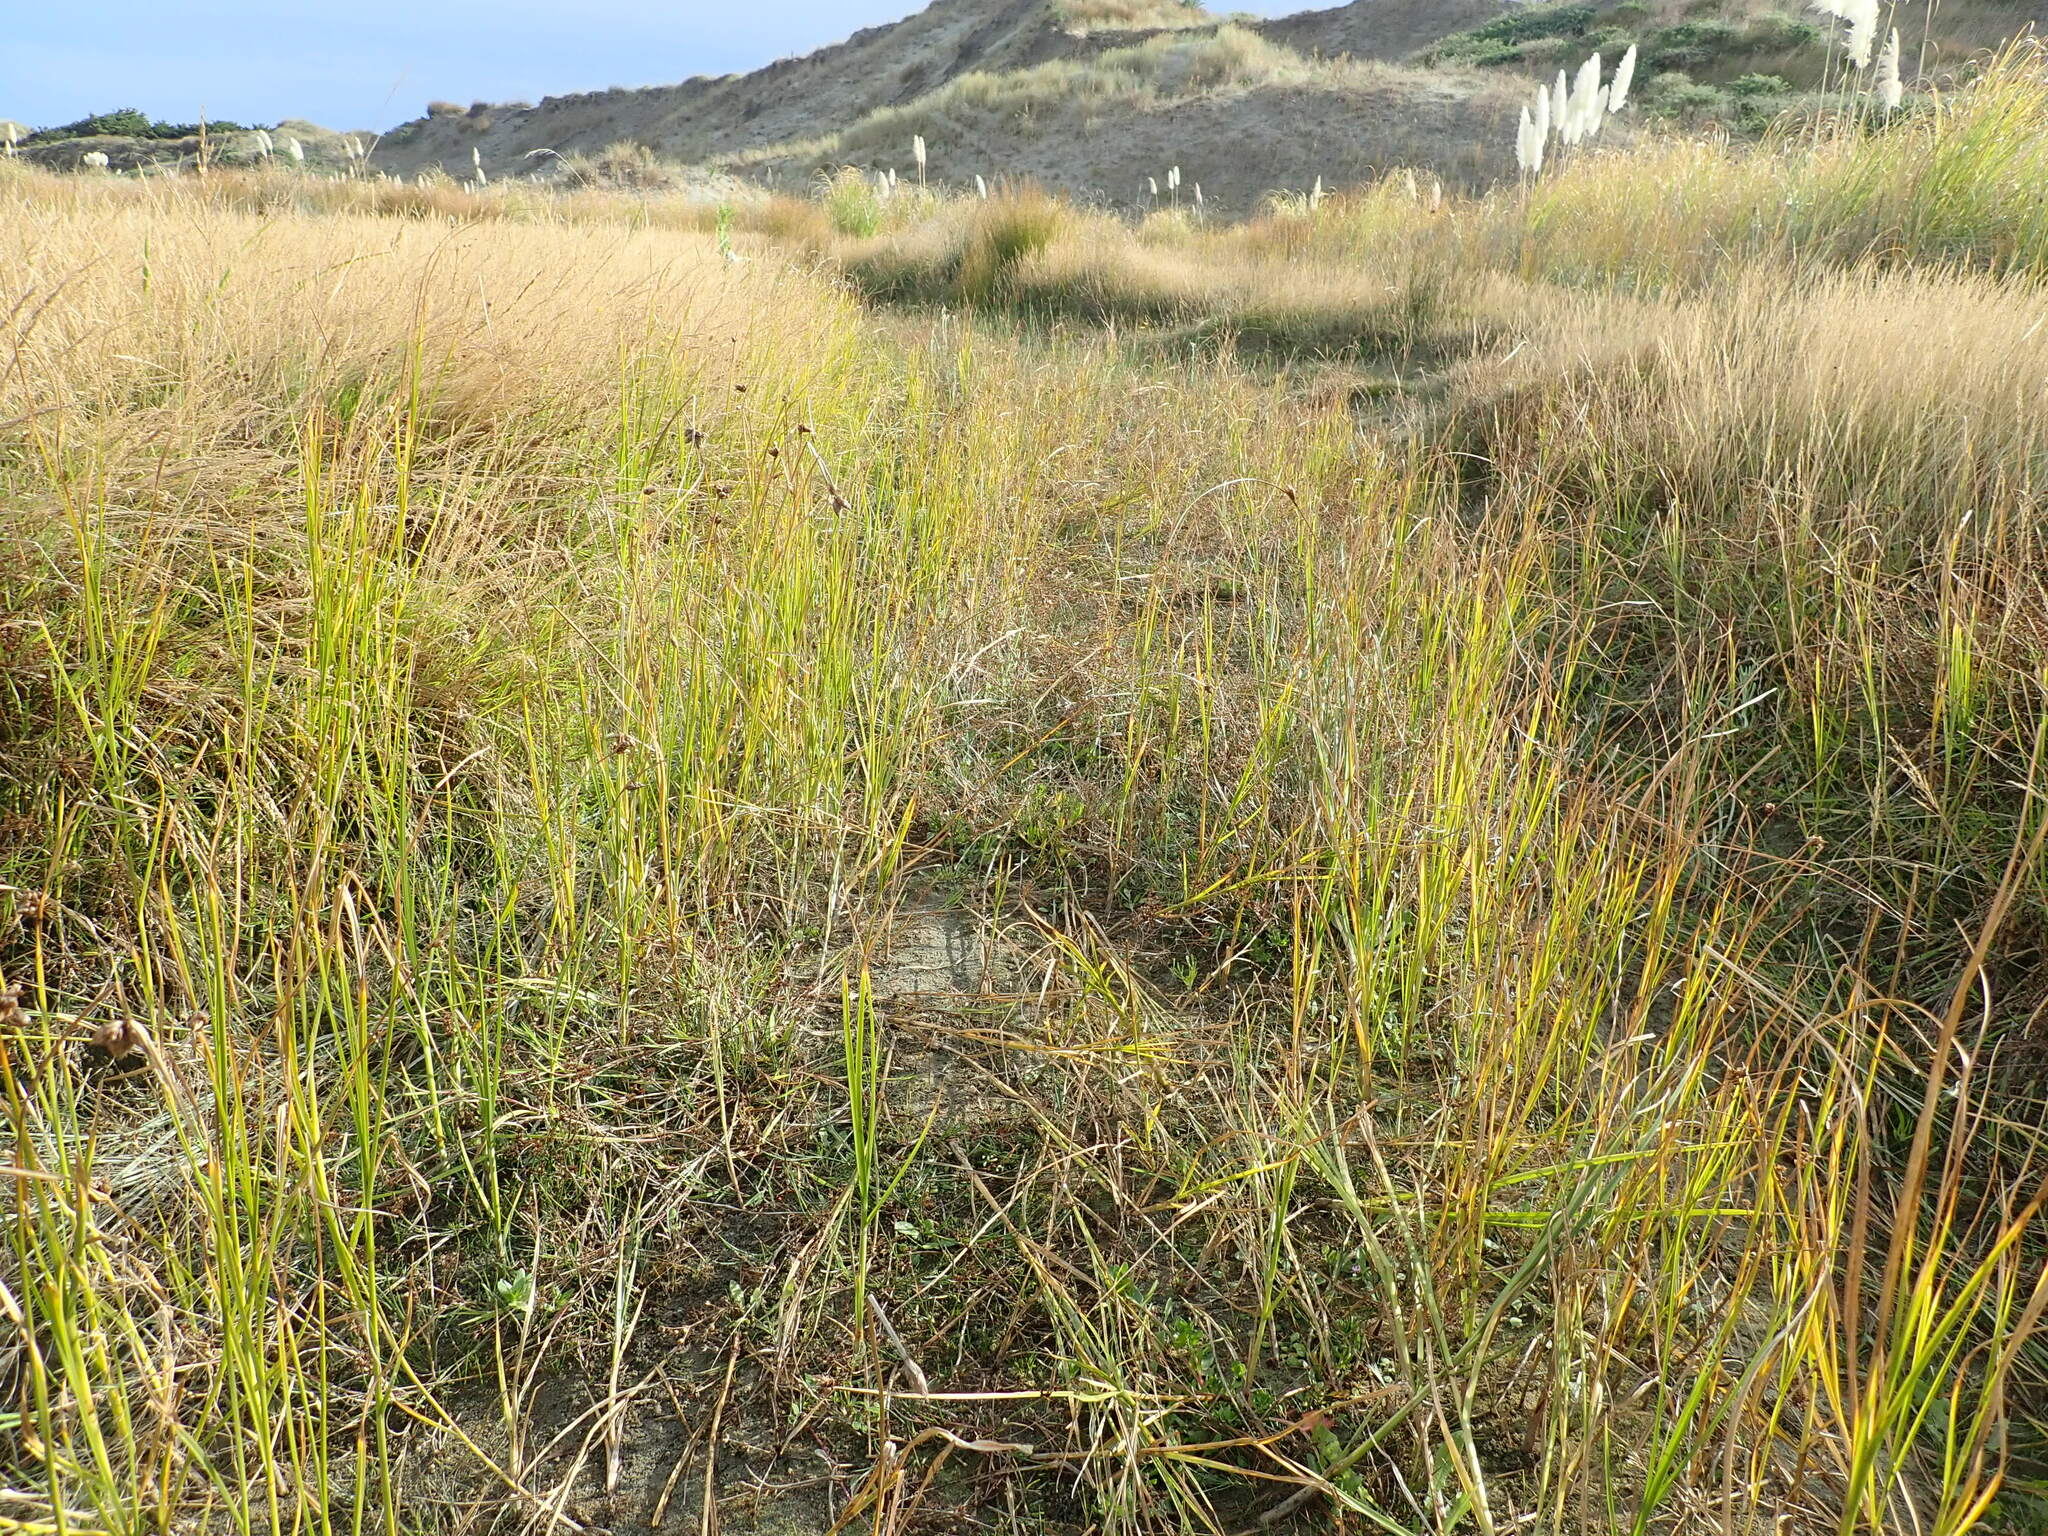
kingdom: Plantae
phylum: Tracheophyta
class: Liliopsida
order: Poales
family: Cyperaceae
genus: Bolboschoenus
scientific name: Bolboschoenus caldwellii
